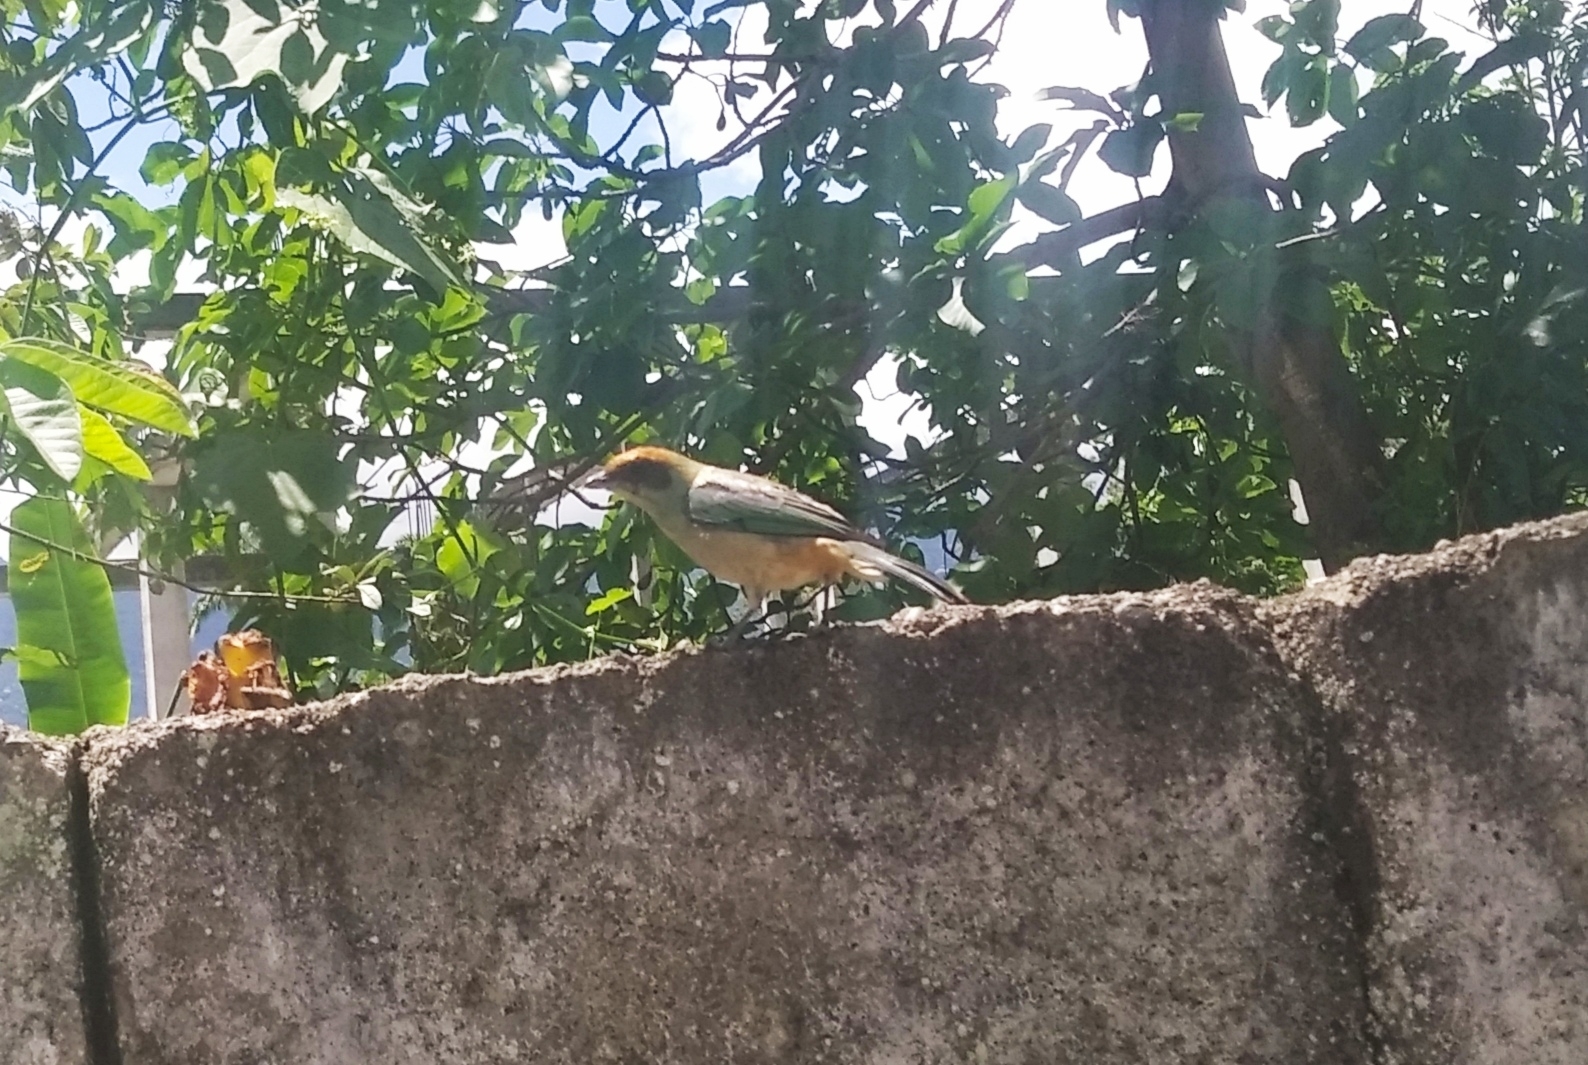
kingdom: Animalia
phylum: Chordata
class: Aves
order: Passeriformes
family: Thraupidae
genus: Stilpnia
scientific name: Stilpnia cayana
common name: Burnished-buff tanager
